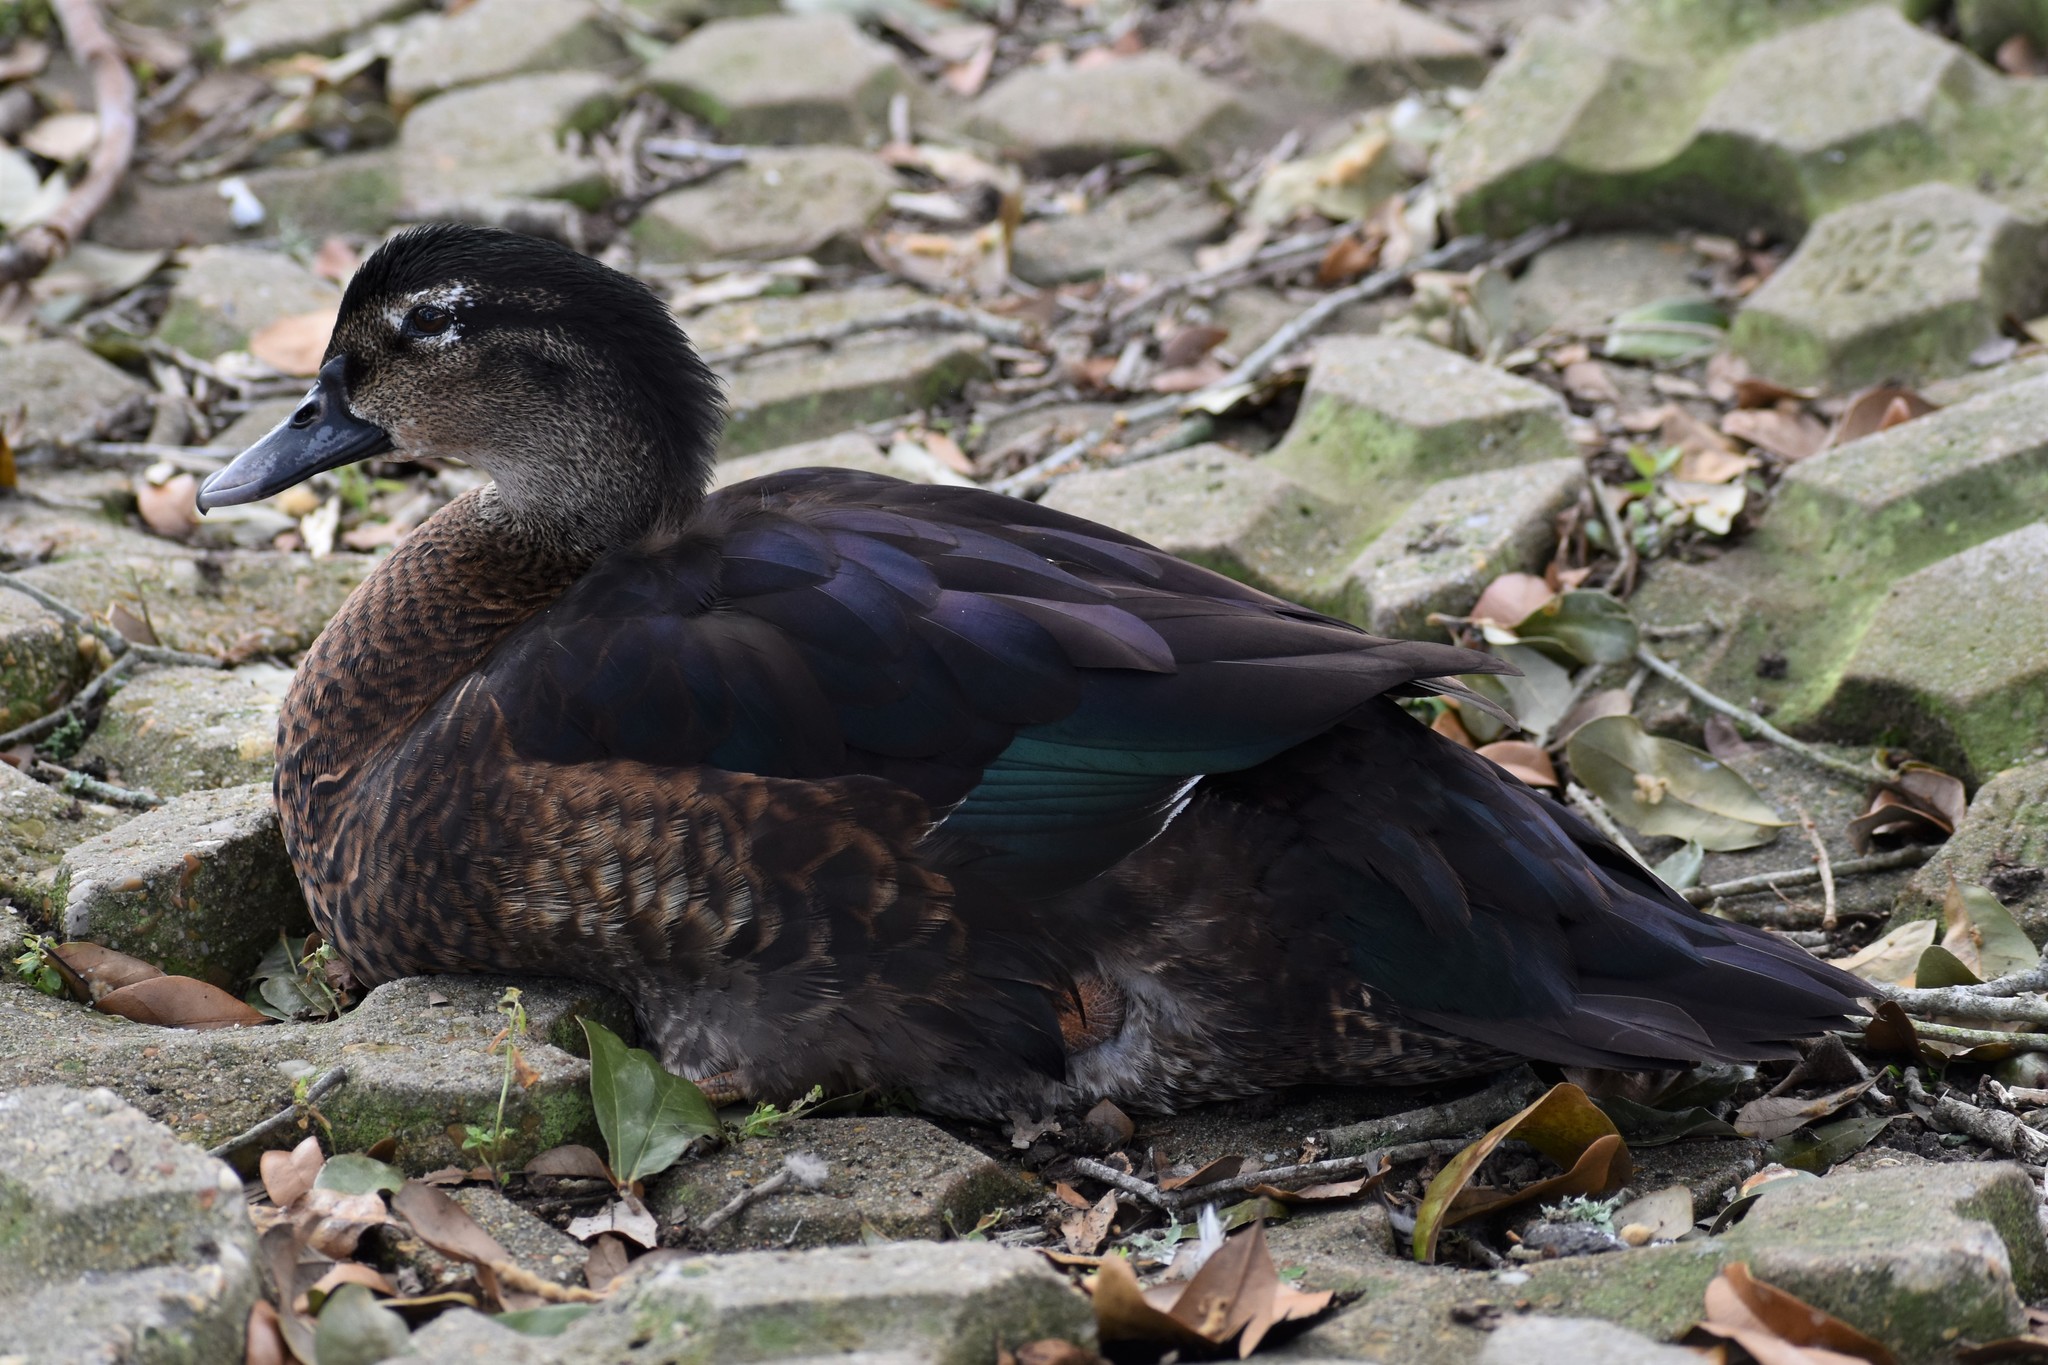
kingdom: Animalia
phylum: Chordata
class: Aves
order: Anseriformes
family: Anatidae
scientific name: Anatidae
